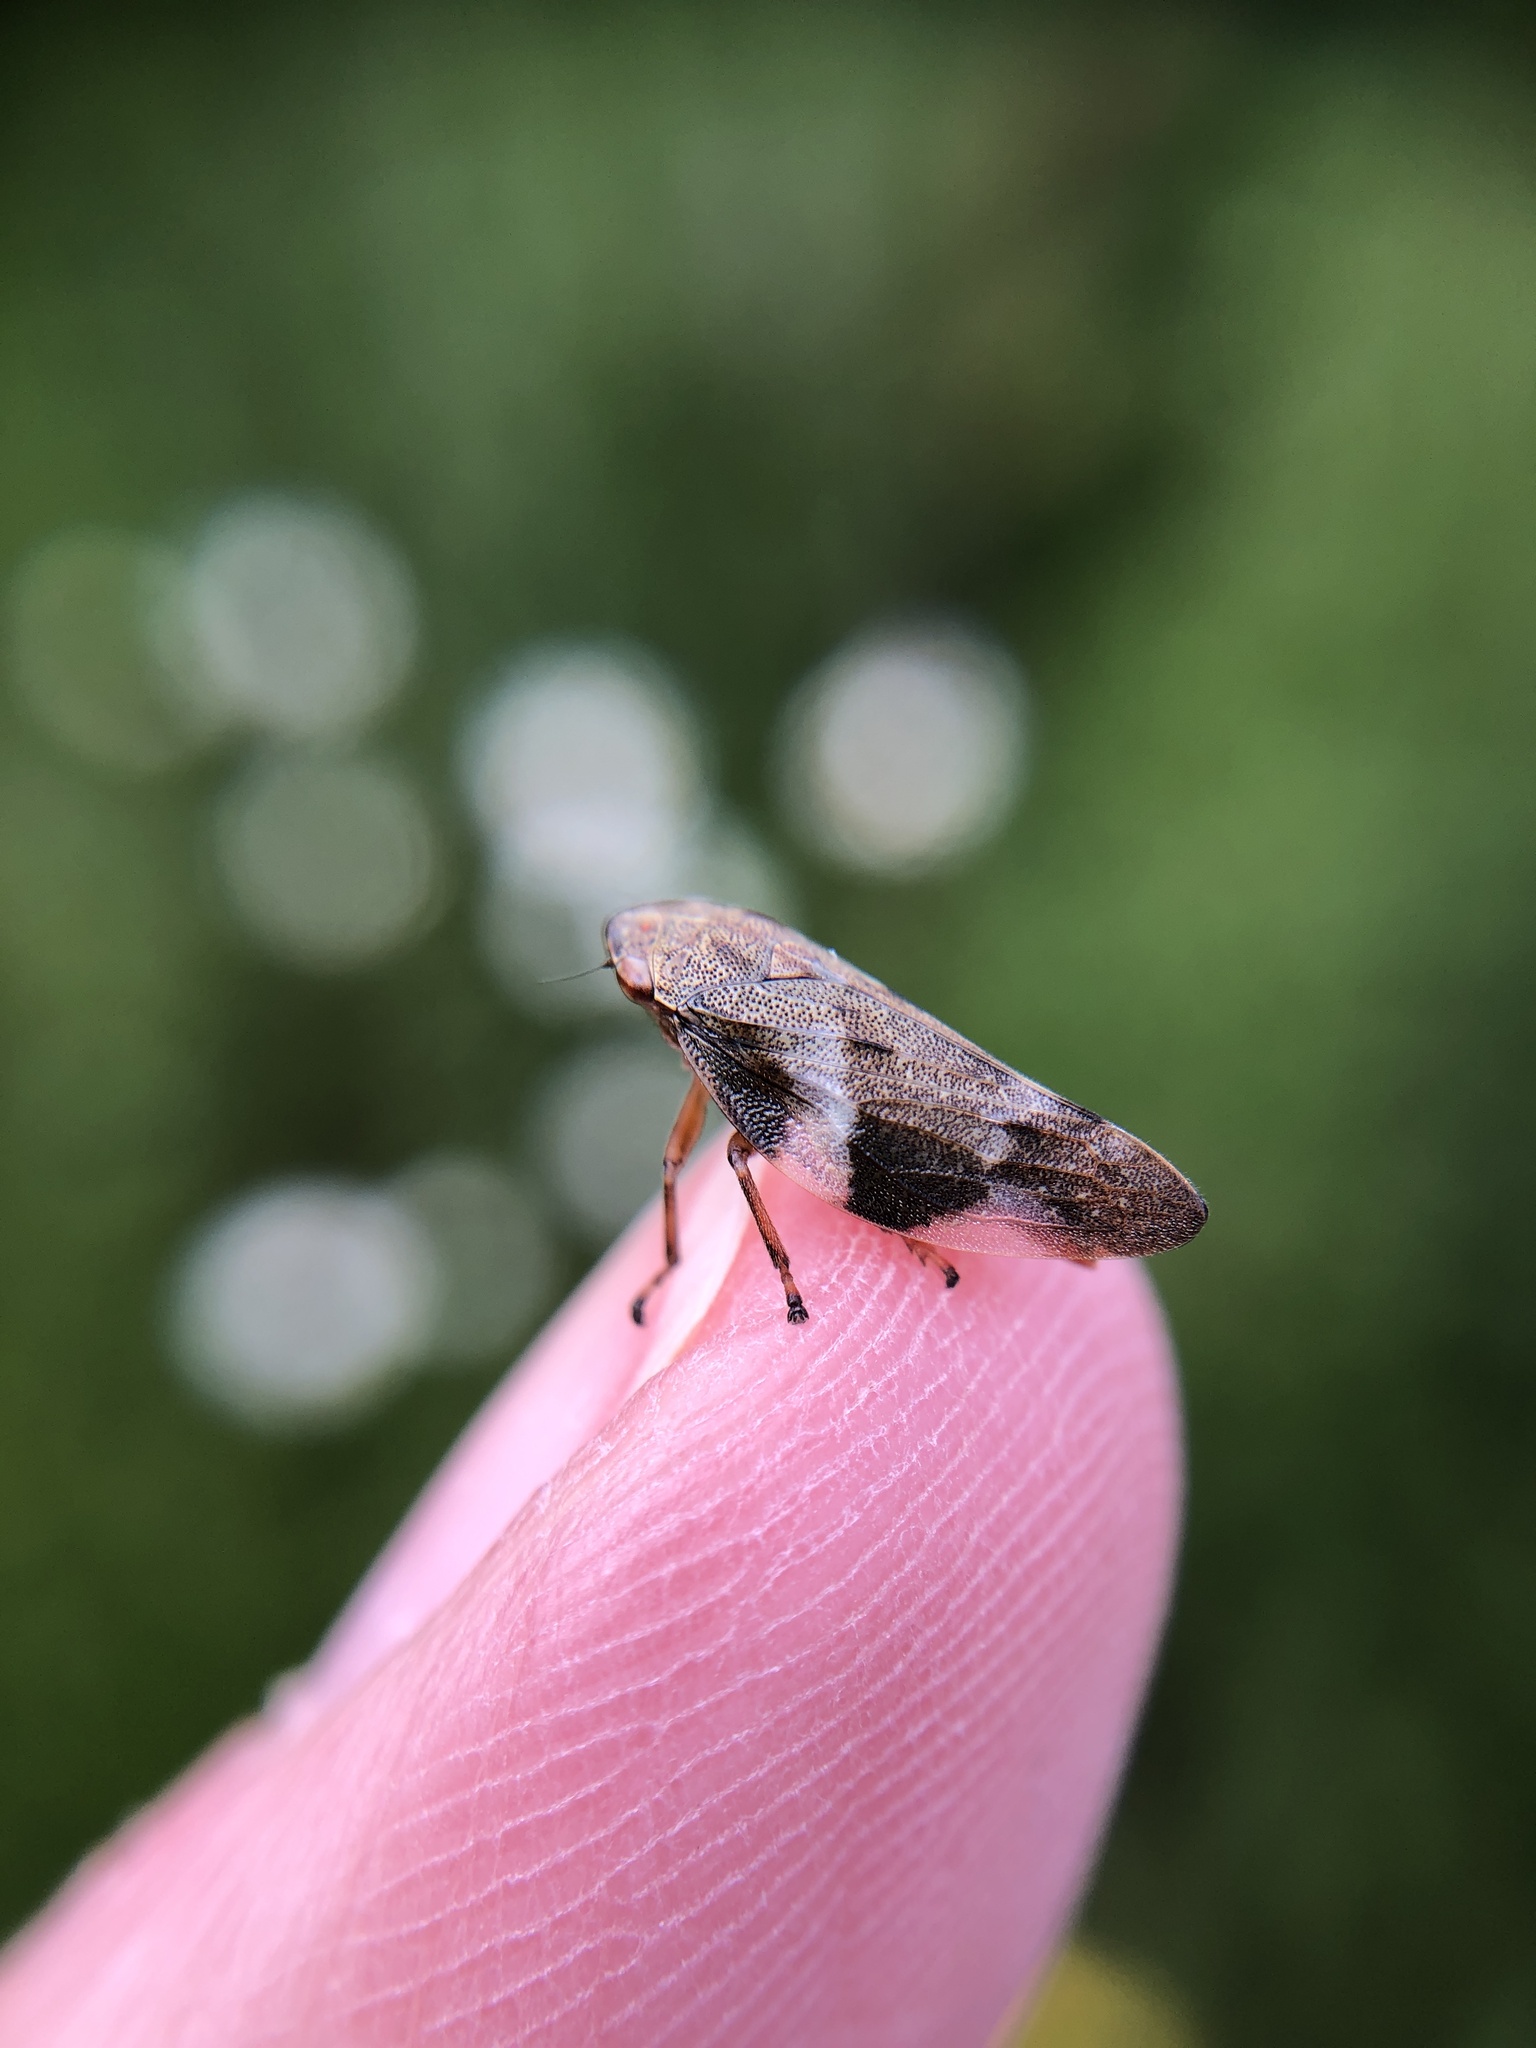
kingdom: Animalia
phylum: Arthropoda
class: Insecta
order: Hemiptera
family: Aphrophoridae
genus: Aphrophora
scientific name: Aphrophora alni
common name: European alder spittlebug
